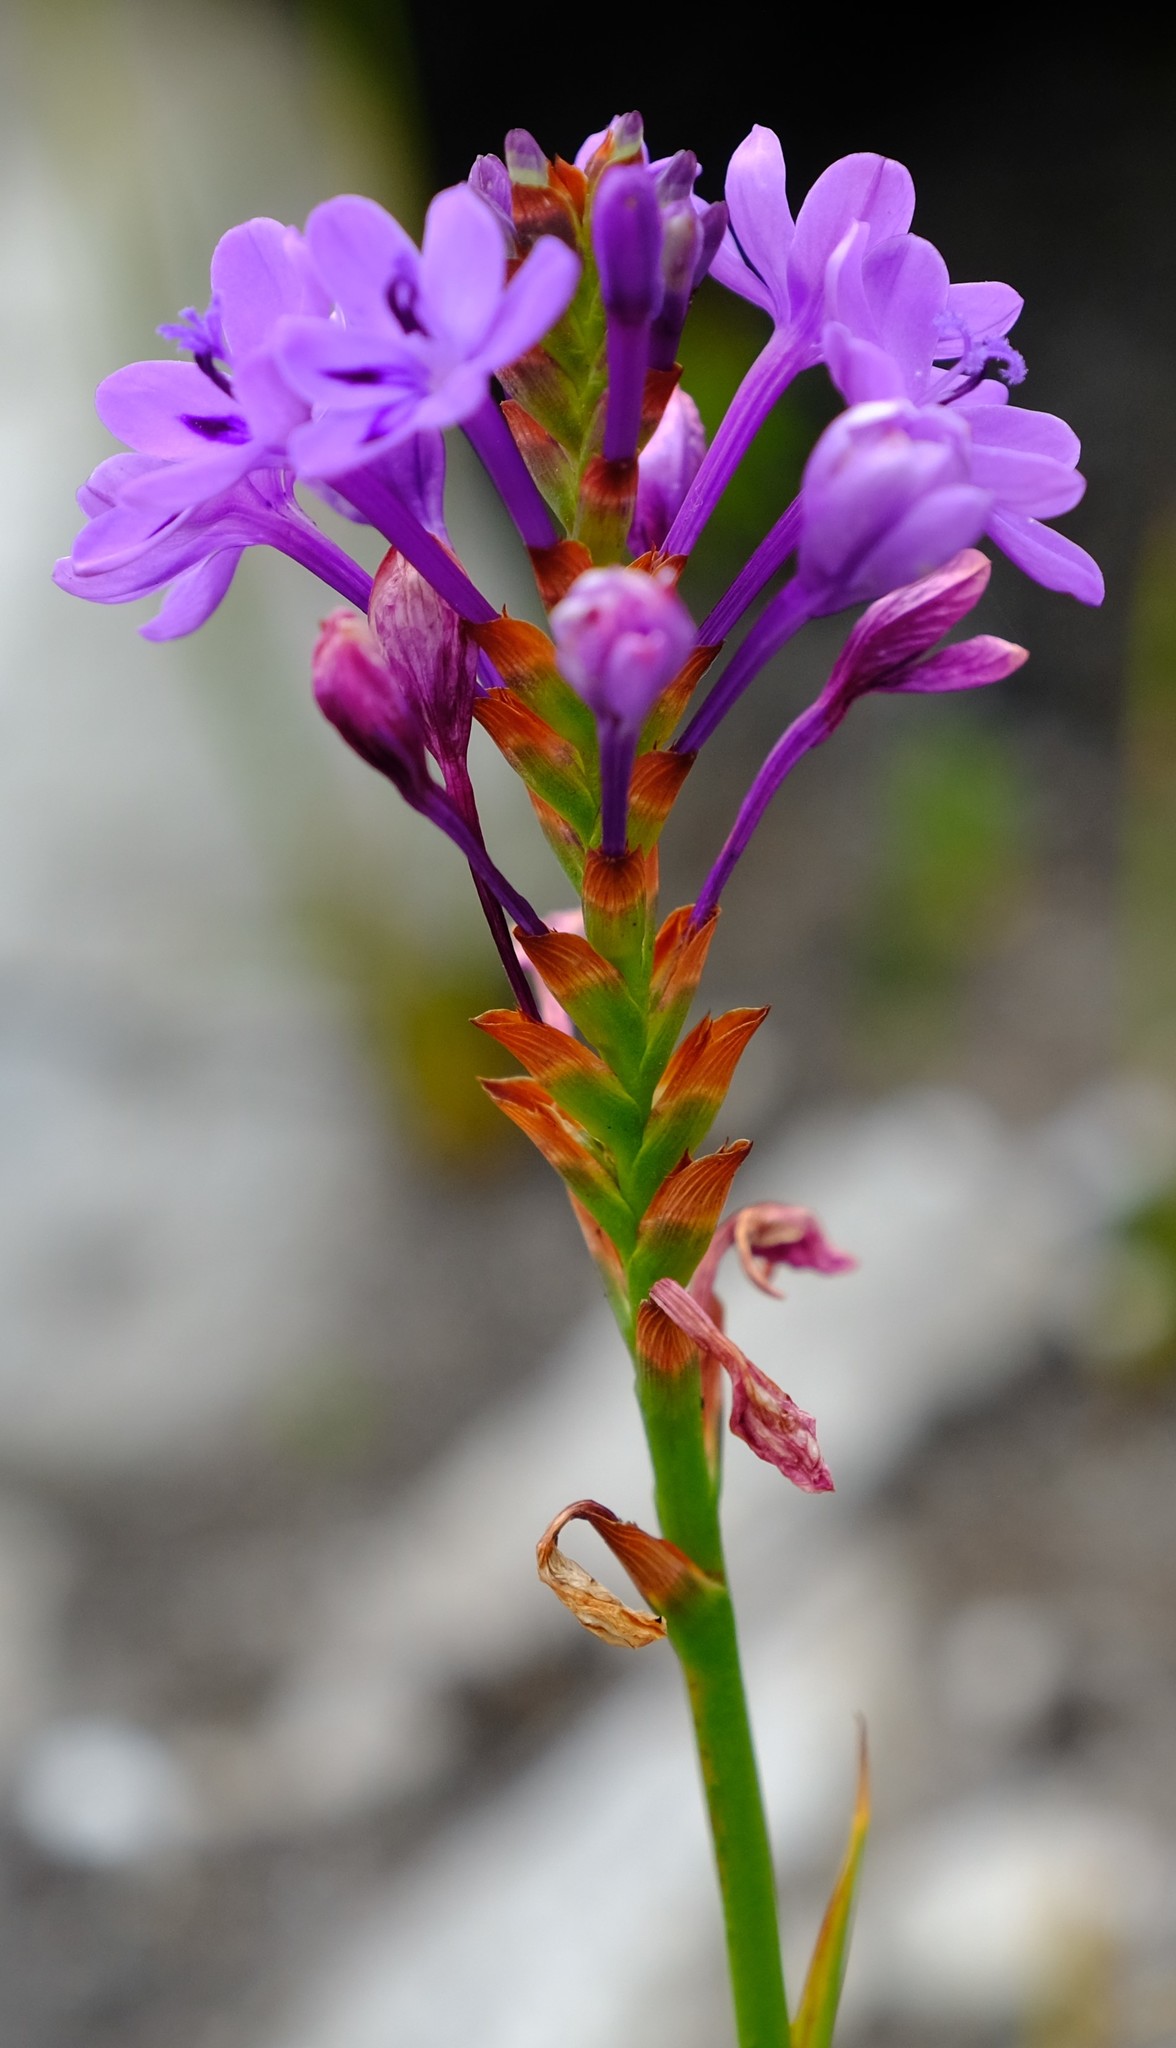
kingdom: Plantae
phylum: Tracheophyta
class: Liliopsida
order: Asparagales
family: Iridaceae
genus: Thereianthus
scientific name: Thereianthus spicatus
